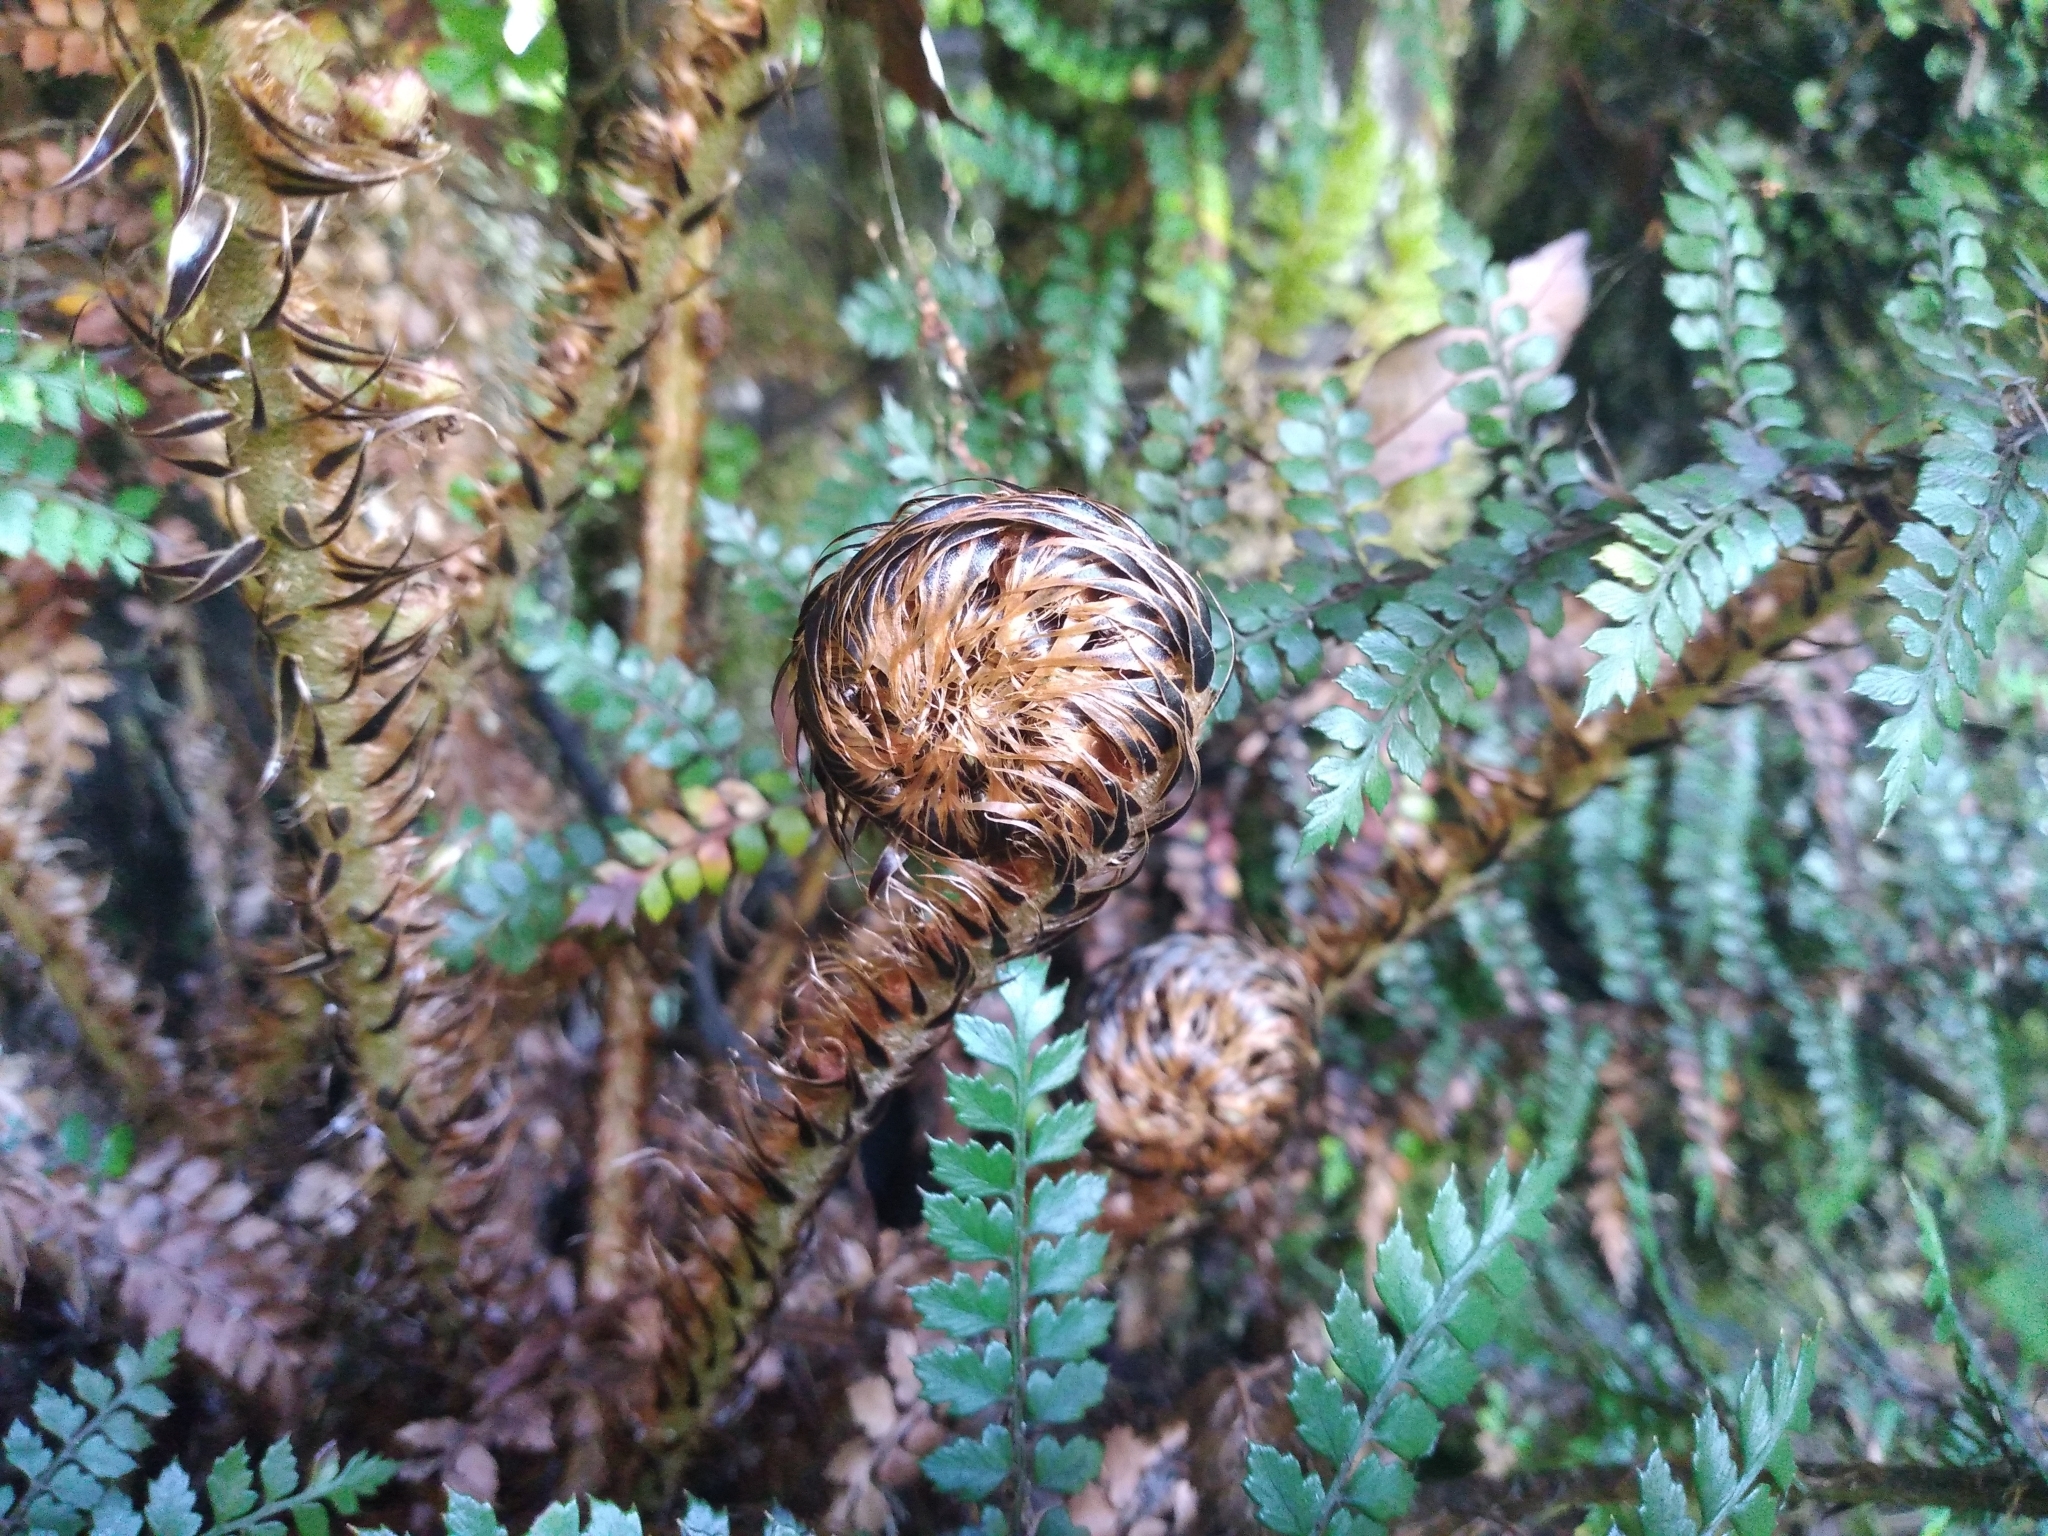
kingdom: Plantae
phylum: Tracheophyta
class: Polypodiopsida
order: Polypodiales
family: Dryopteridaceae
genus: Polystichum
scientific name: Polystichum vestitum
